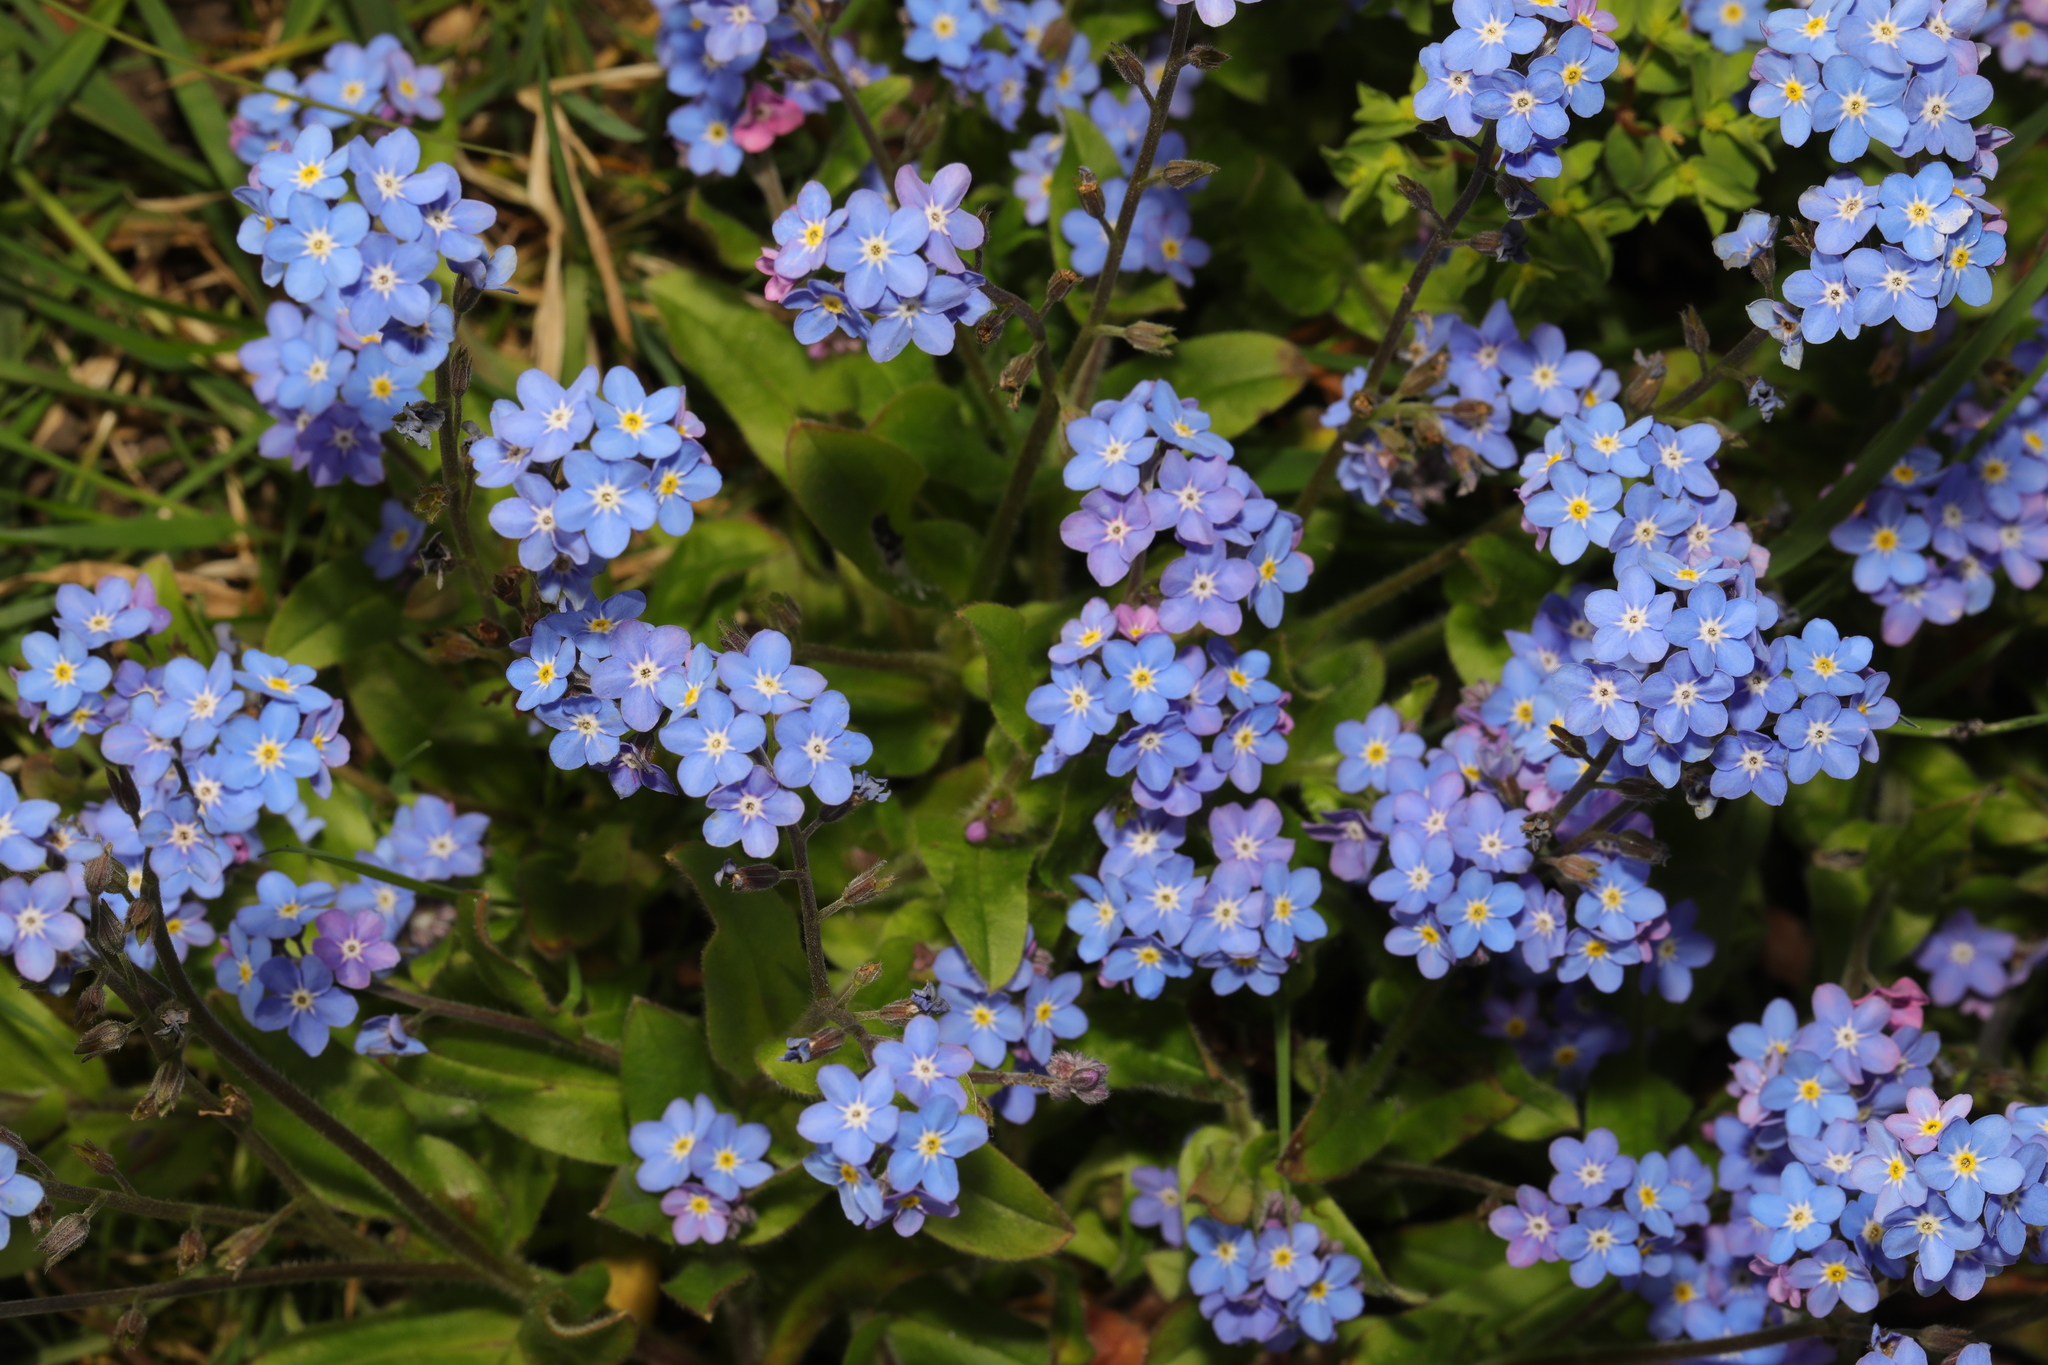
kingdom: Plantae
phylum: Tracheophyta
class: Magnoliopsida
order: Boraginales
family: Boraginaceae
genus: Myosotis
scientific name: Myosotis sylvatica
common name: Wood forget-me-not
